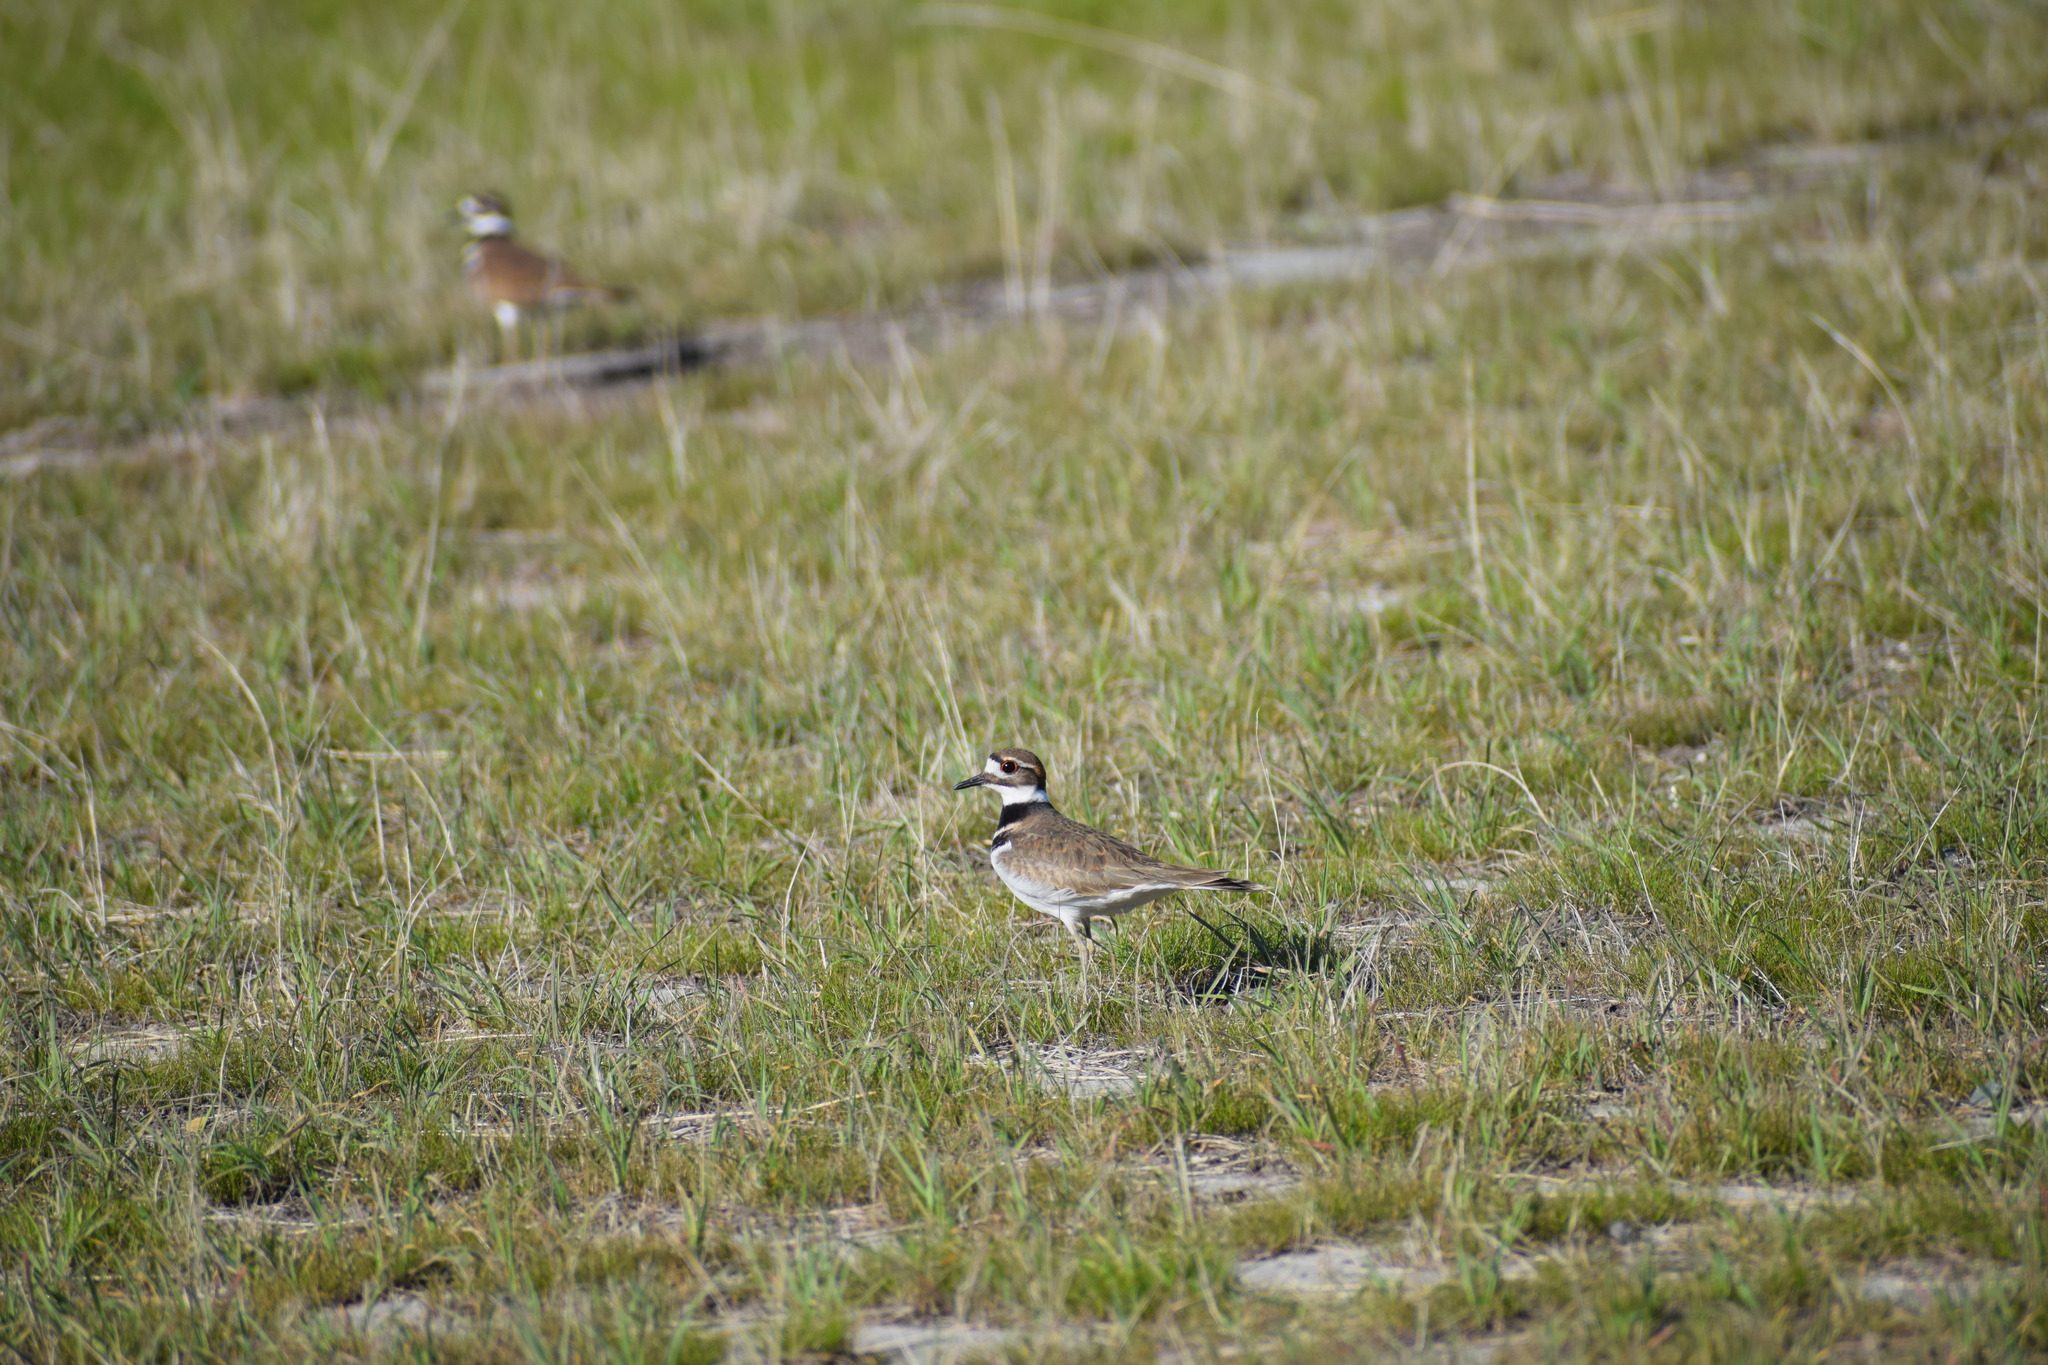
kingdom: Animalia
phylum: Chordata
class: Aves
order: Charadriiformes
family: Charadriidae
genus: Charadrius
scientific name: Charadrius vociferus
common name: Killdeer
